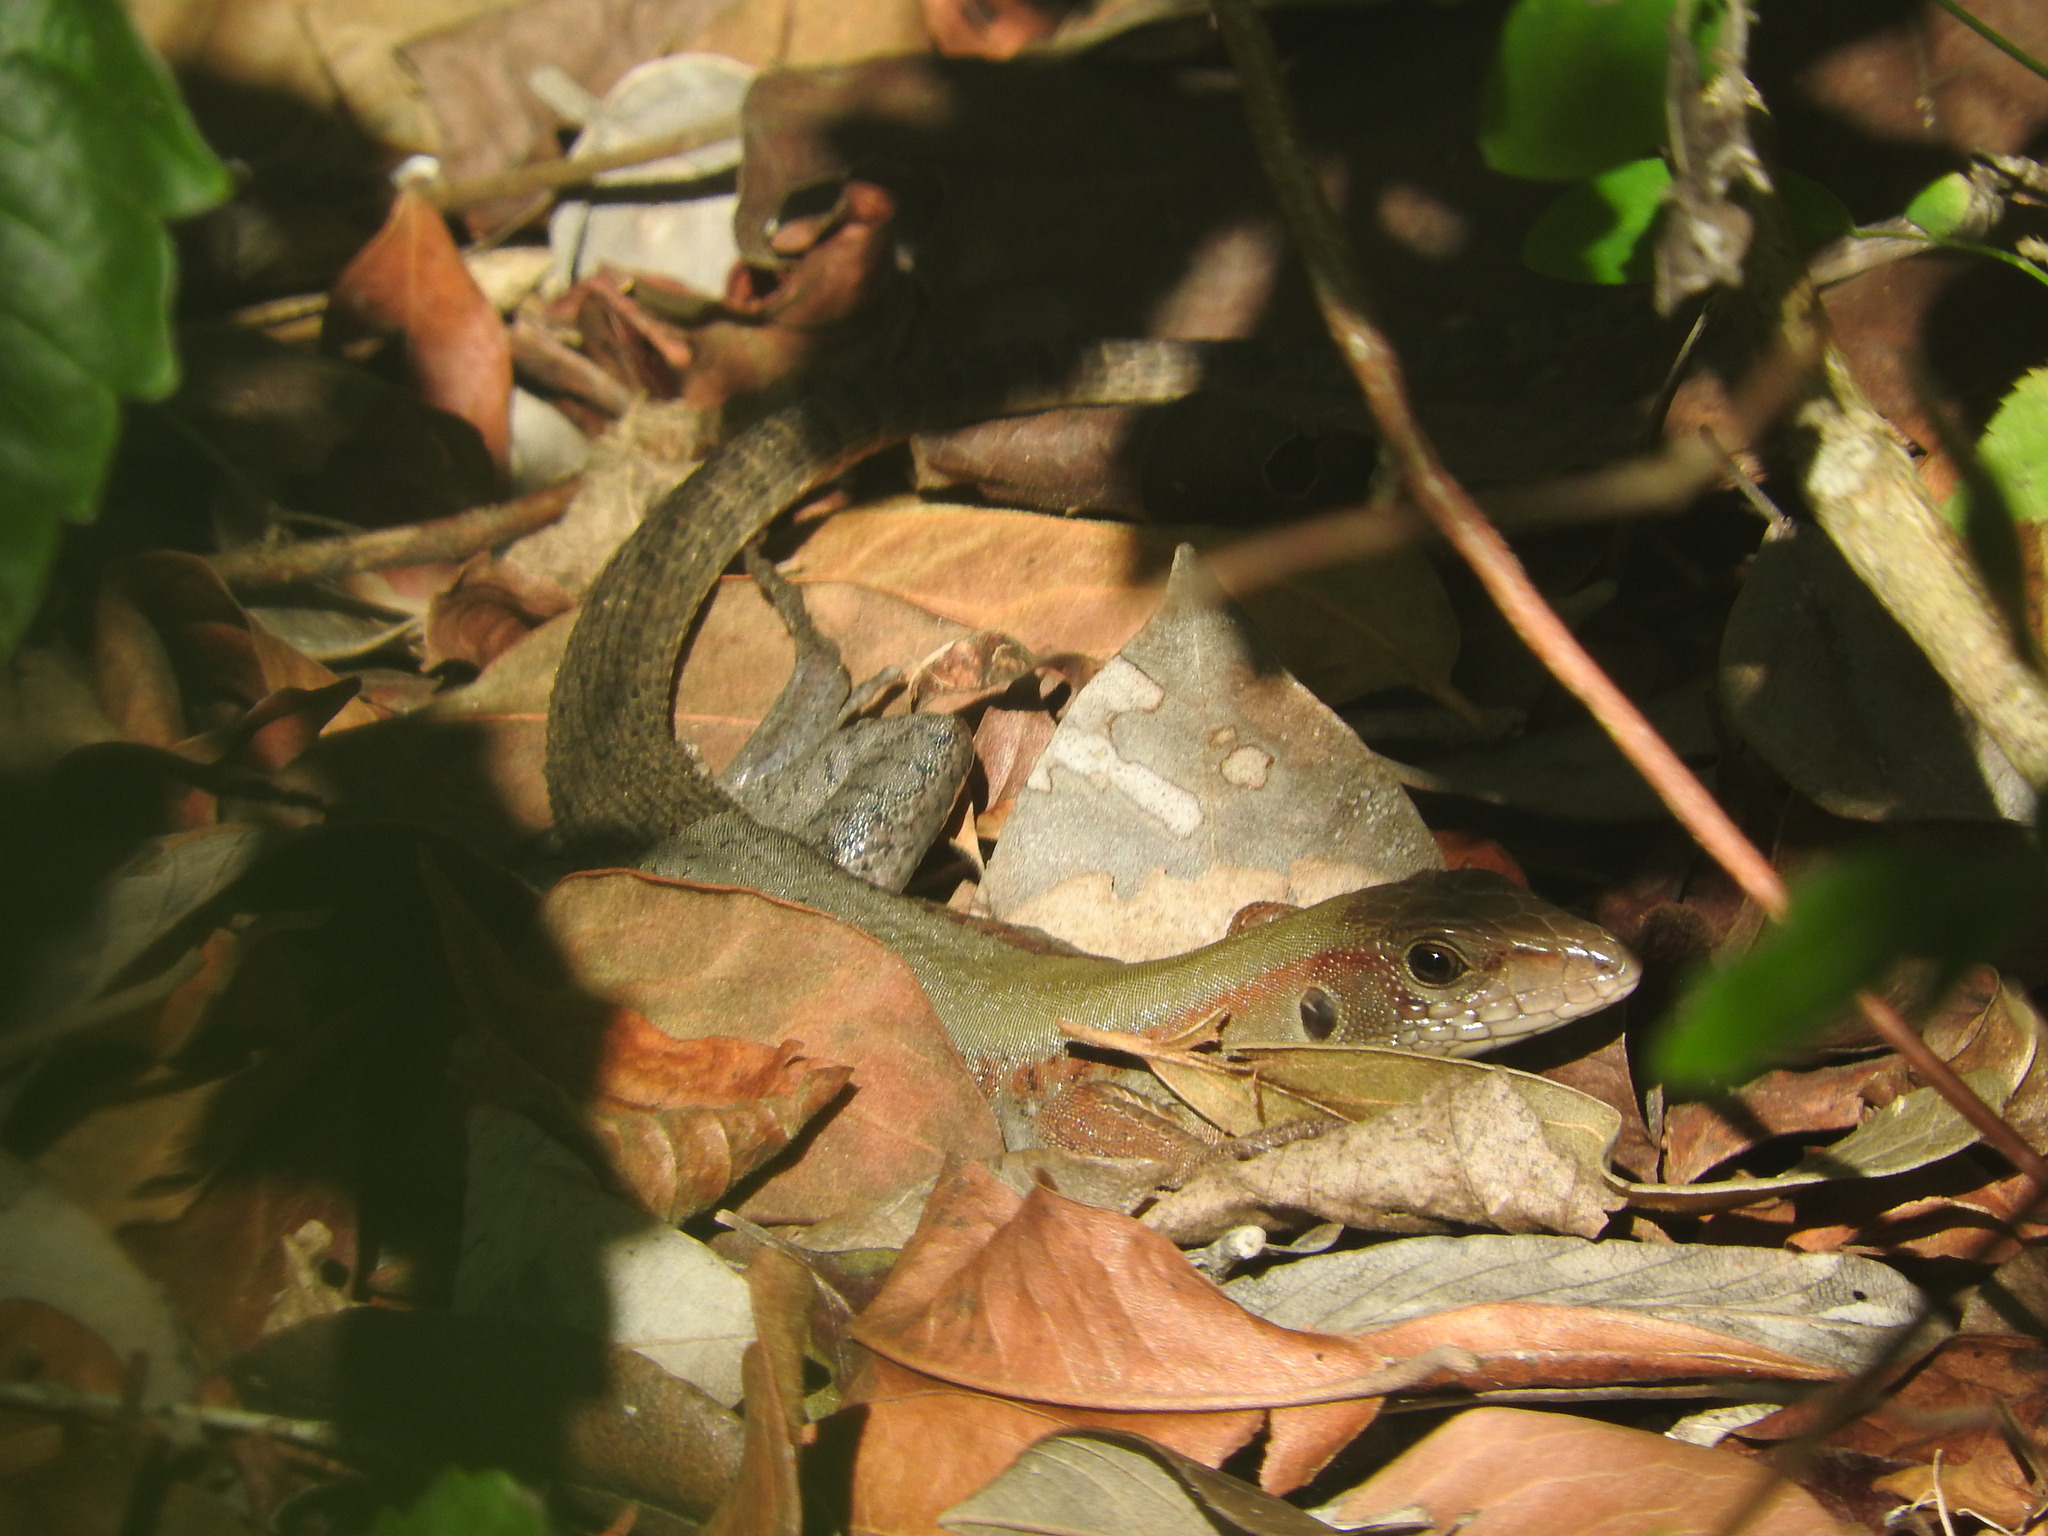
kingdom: Animalia
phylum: Chordata
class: Squamata
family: Teiidae
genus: Holcosus
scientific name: Holcosus undulatus
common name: Rainbow ameiva
